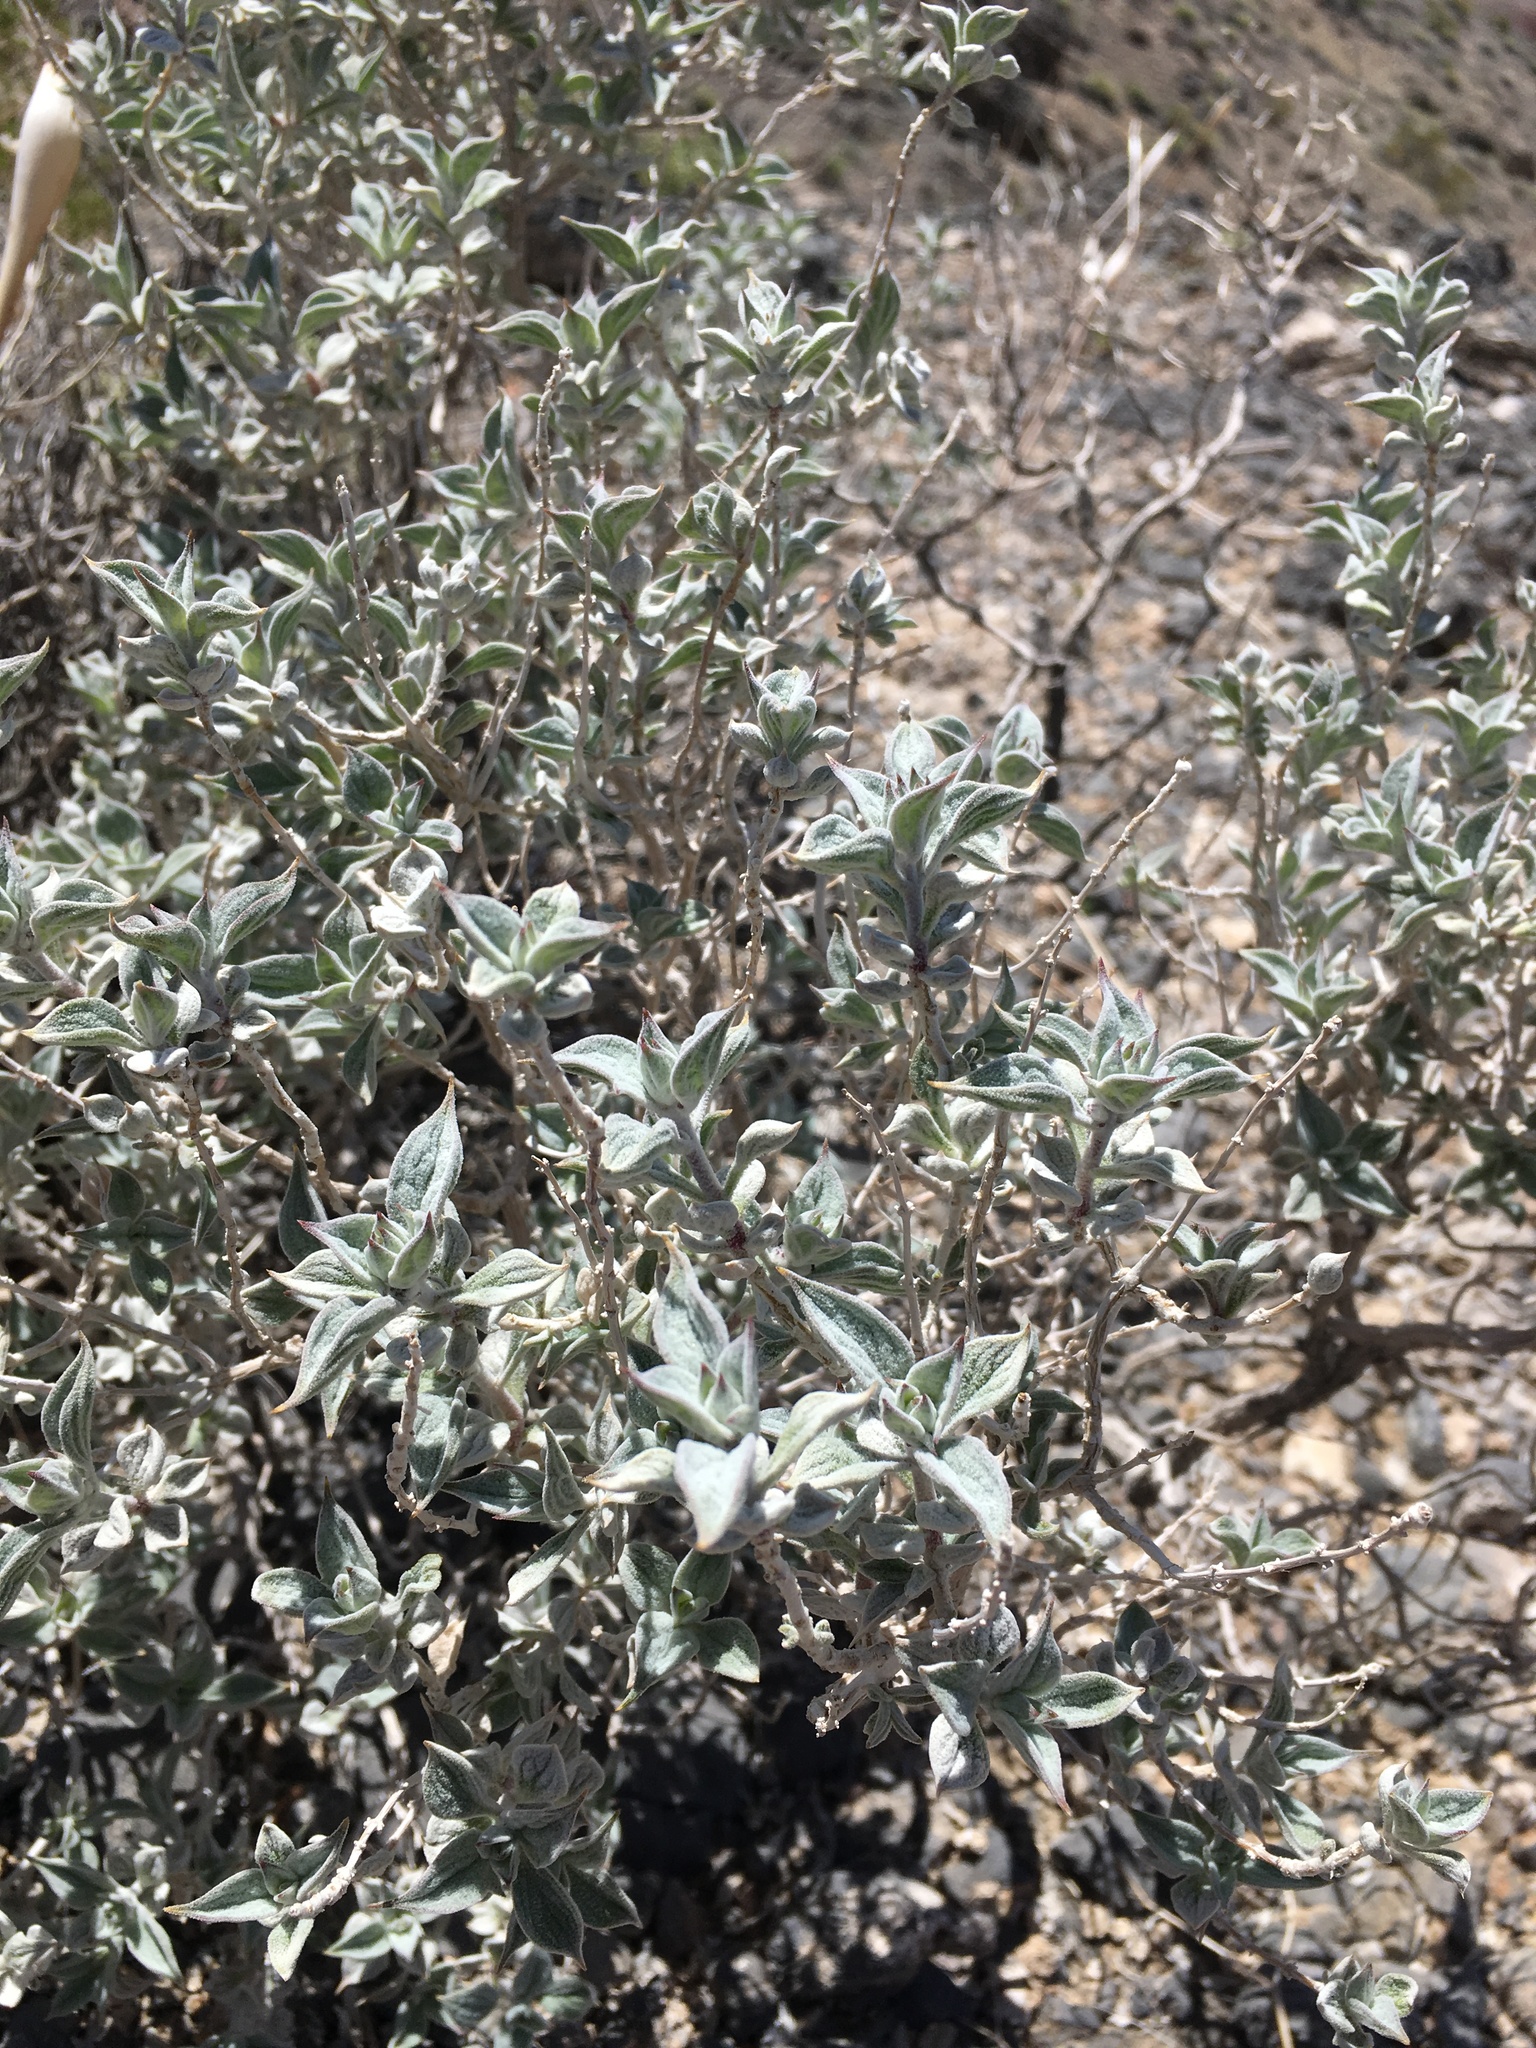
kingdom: Plantae
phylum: Tracheophyta
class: Magnoliopsida
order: Lamiales
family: Lamiaceae
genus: Salvia
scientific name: Salvia funerea
